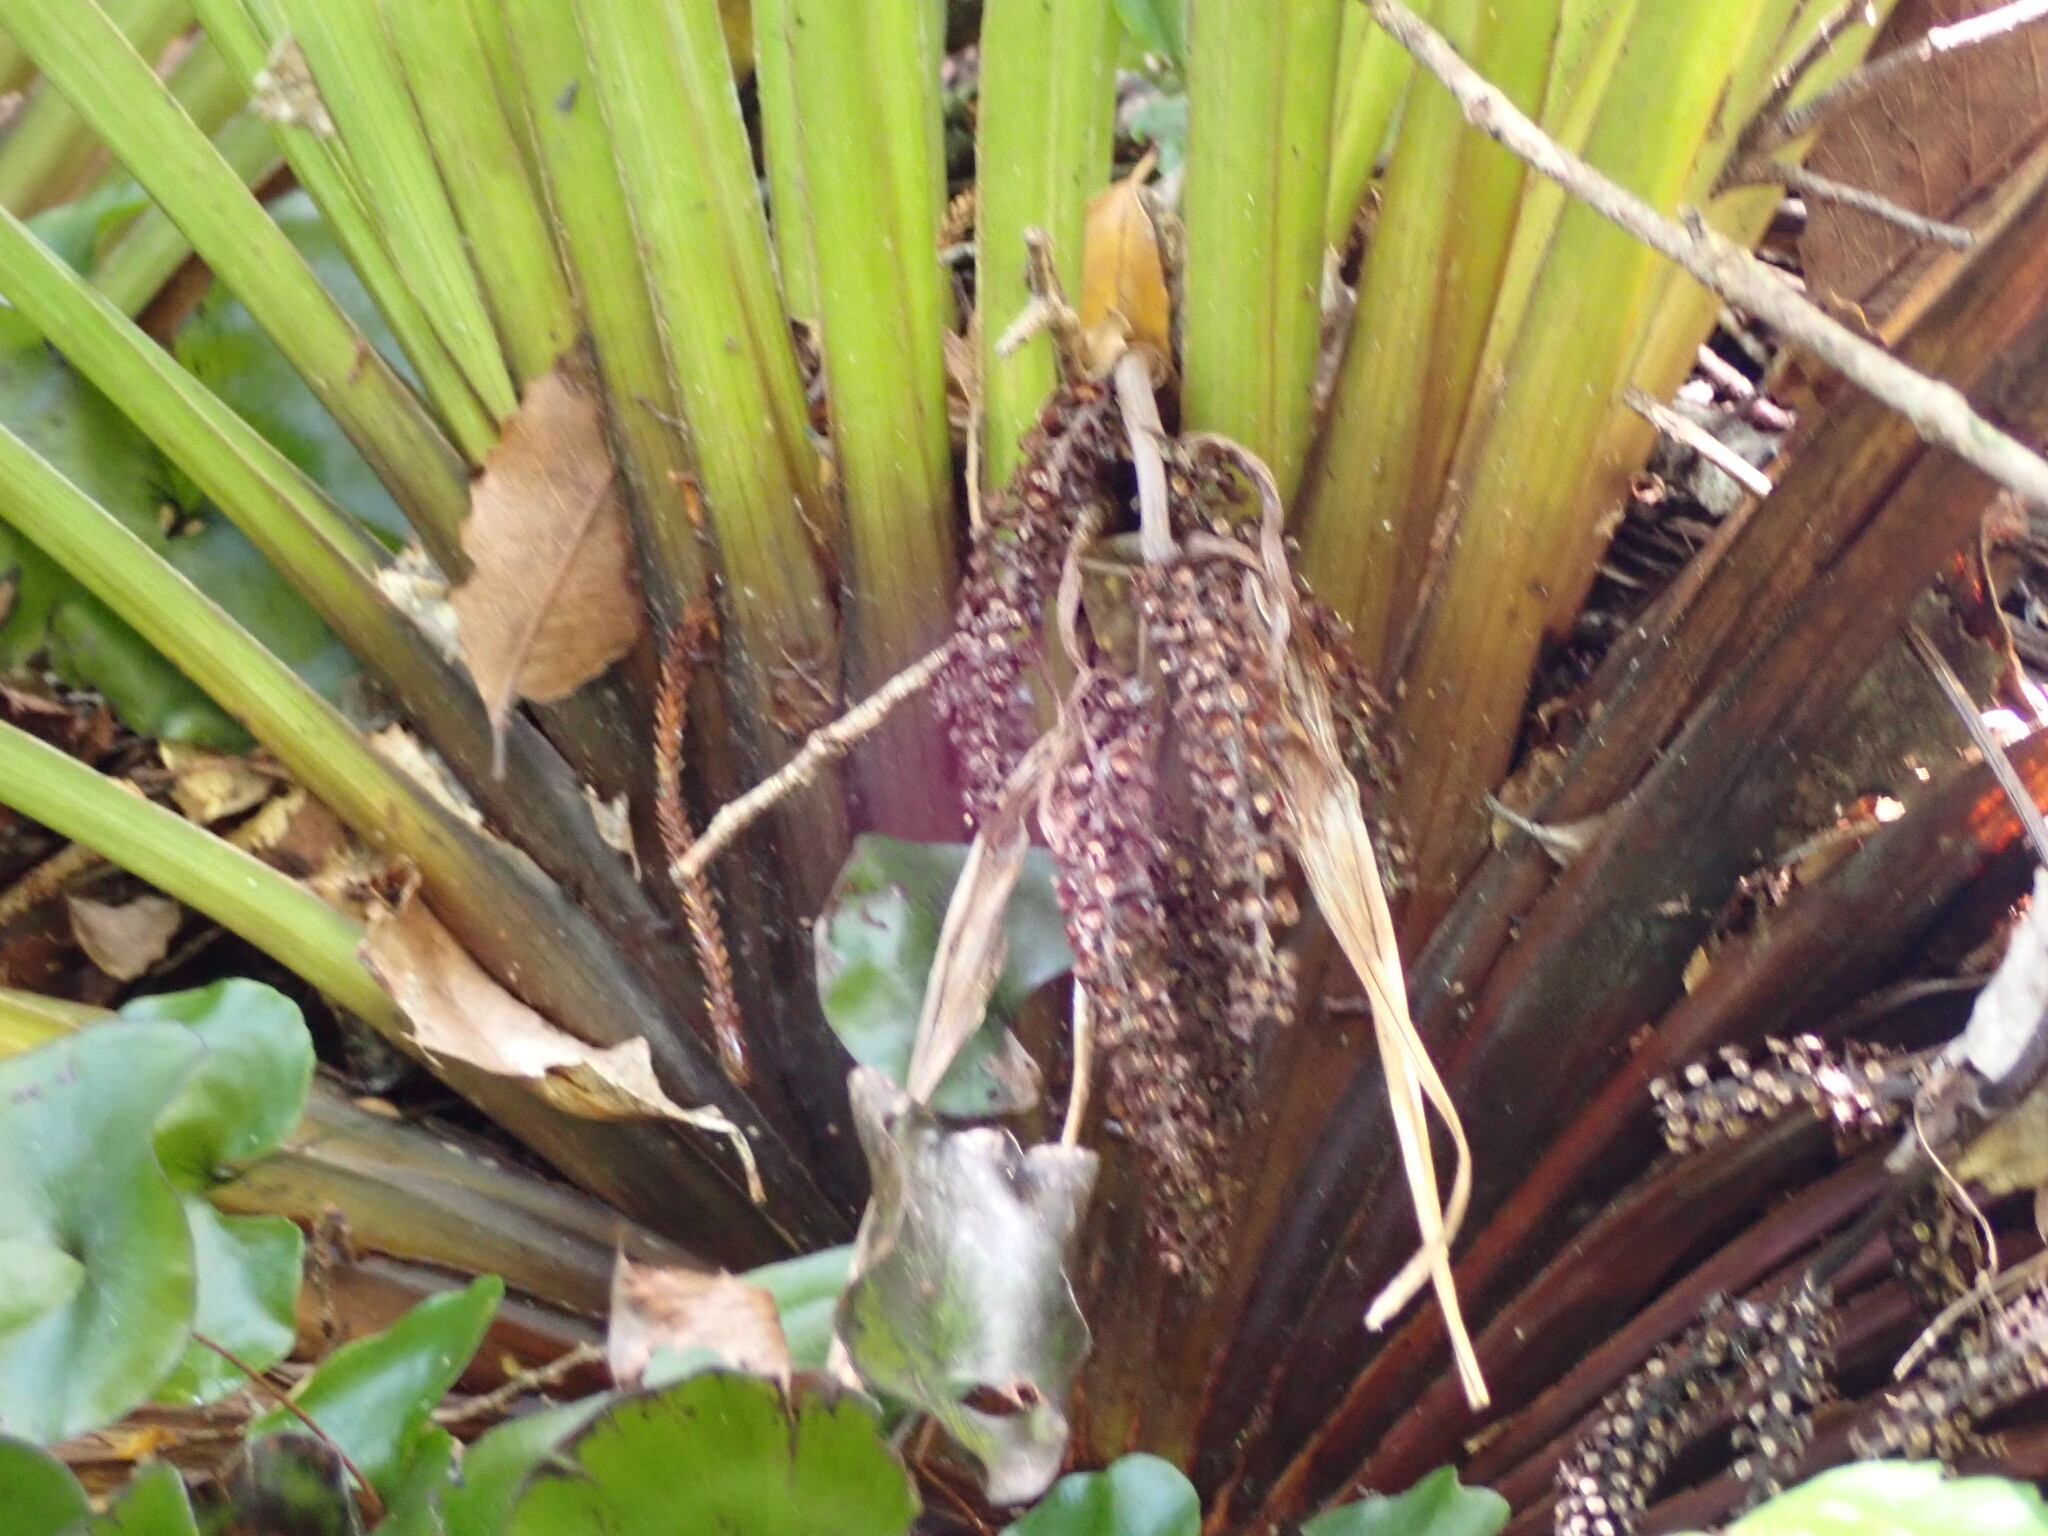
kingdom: Plantae
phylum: Tracheophyta
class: Liliopsida
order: Asparagales
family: Asteliaceae
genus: Astelia
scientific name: Astelia microsperma
